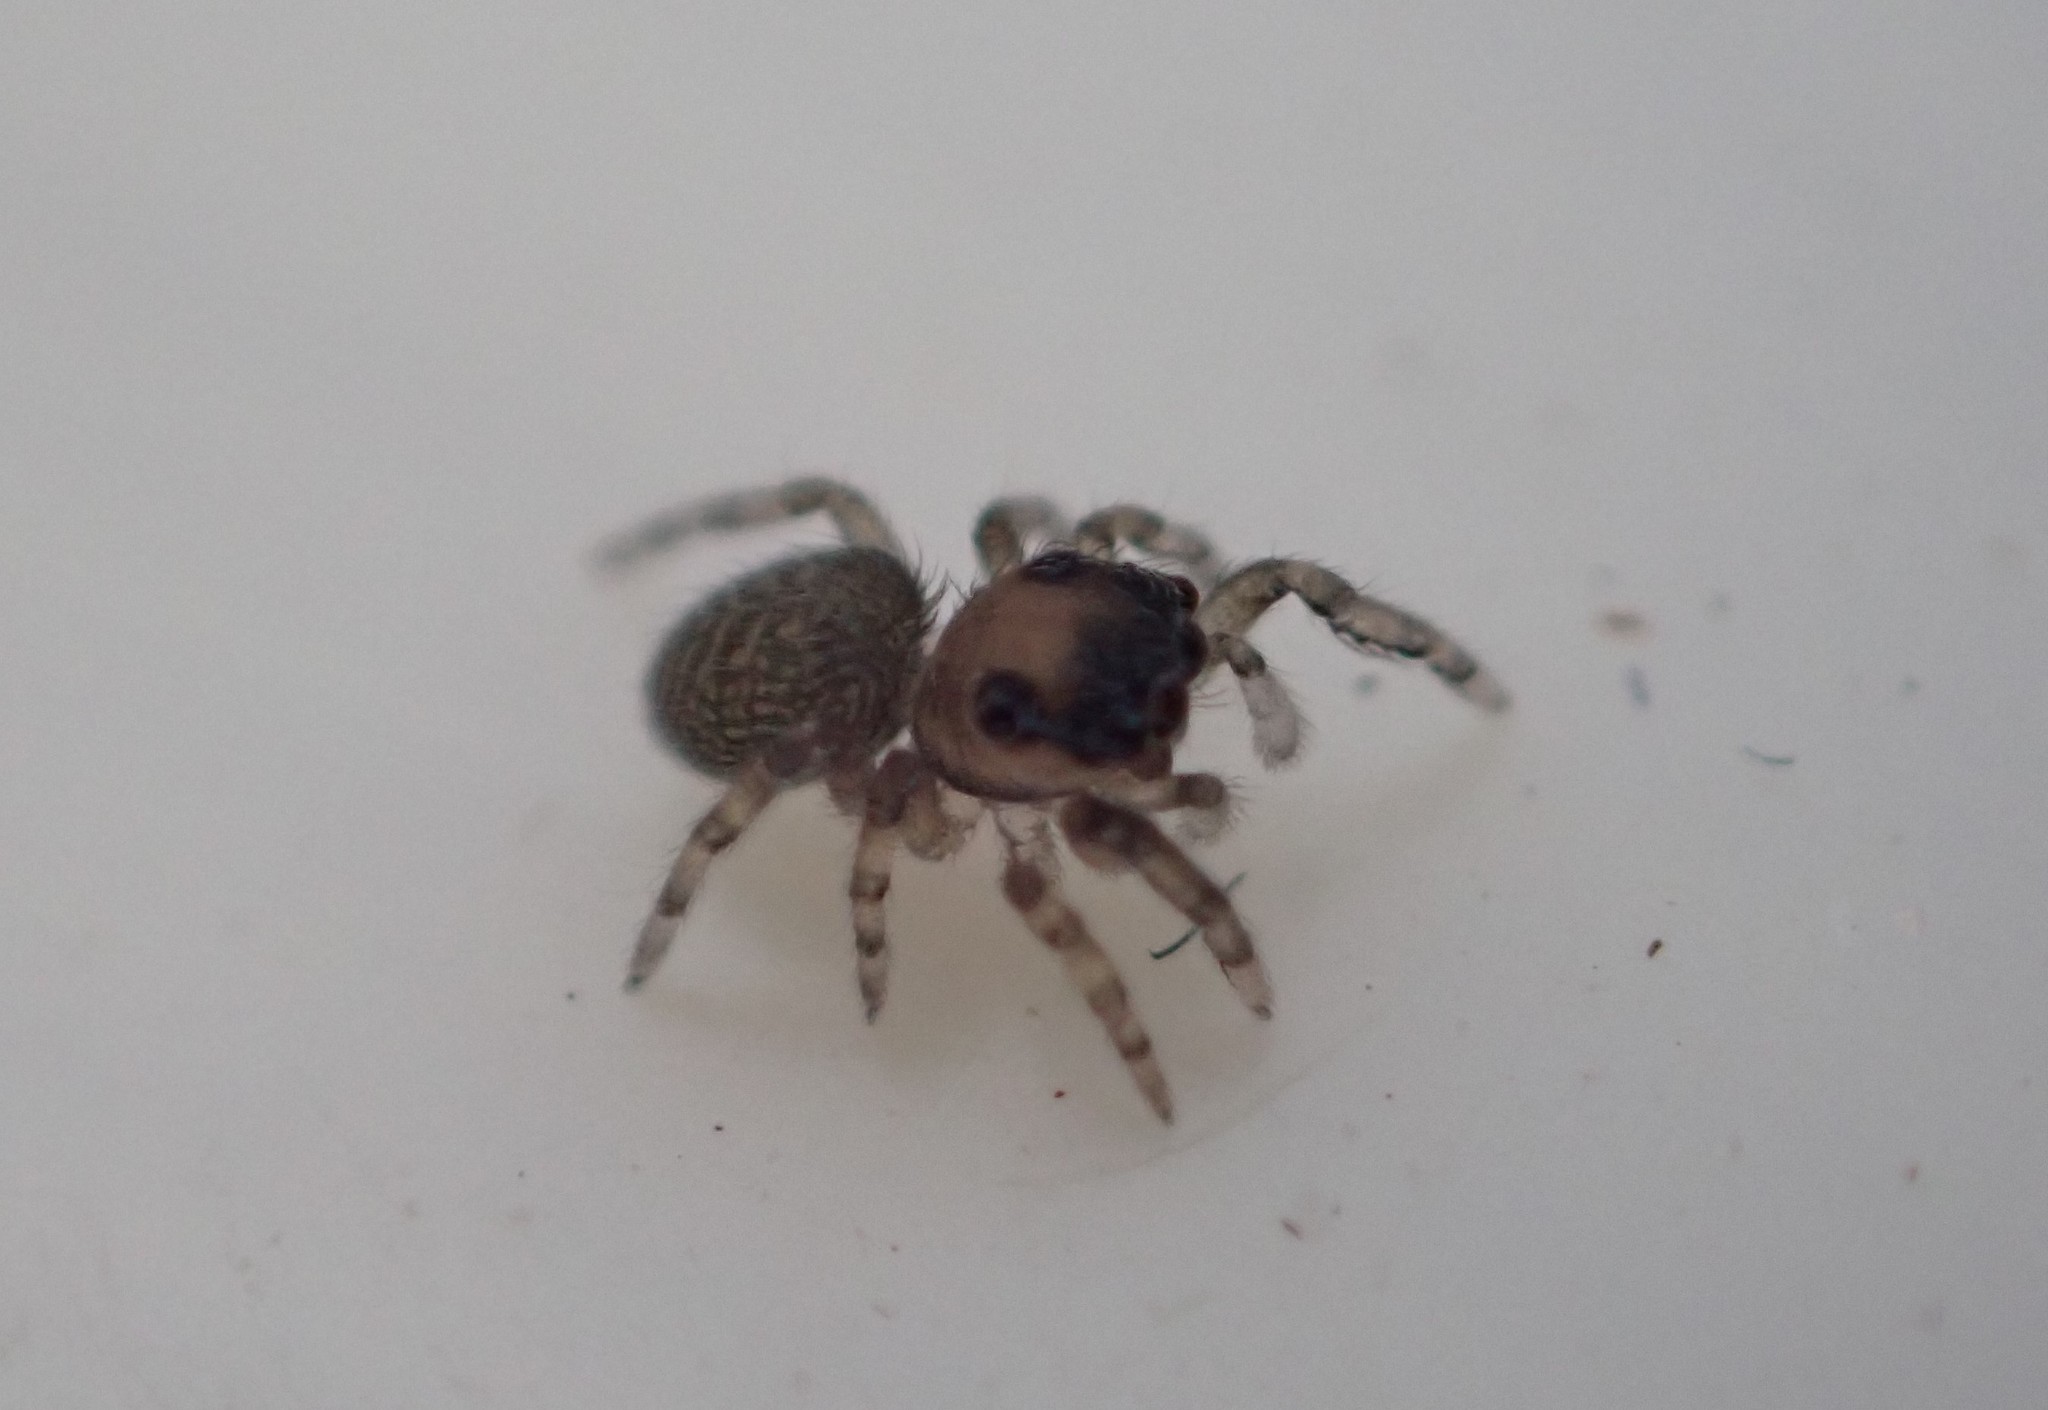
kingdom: Animalia
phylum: Arthropoda
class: Arachnida
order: Araneae
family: Salticidae
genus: Neon
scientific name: Neon reticulatus
